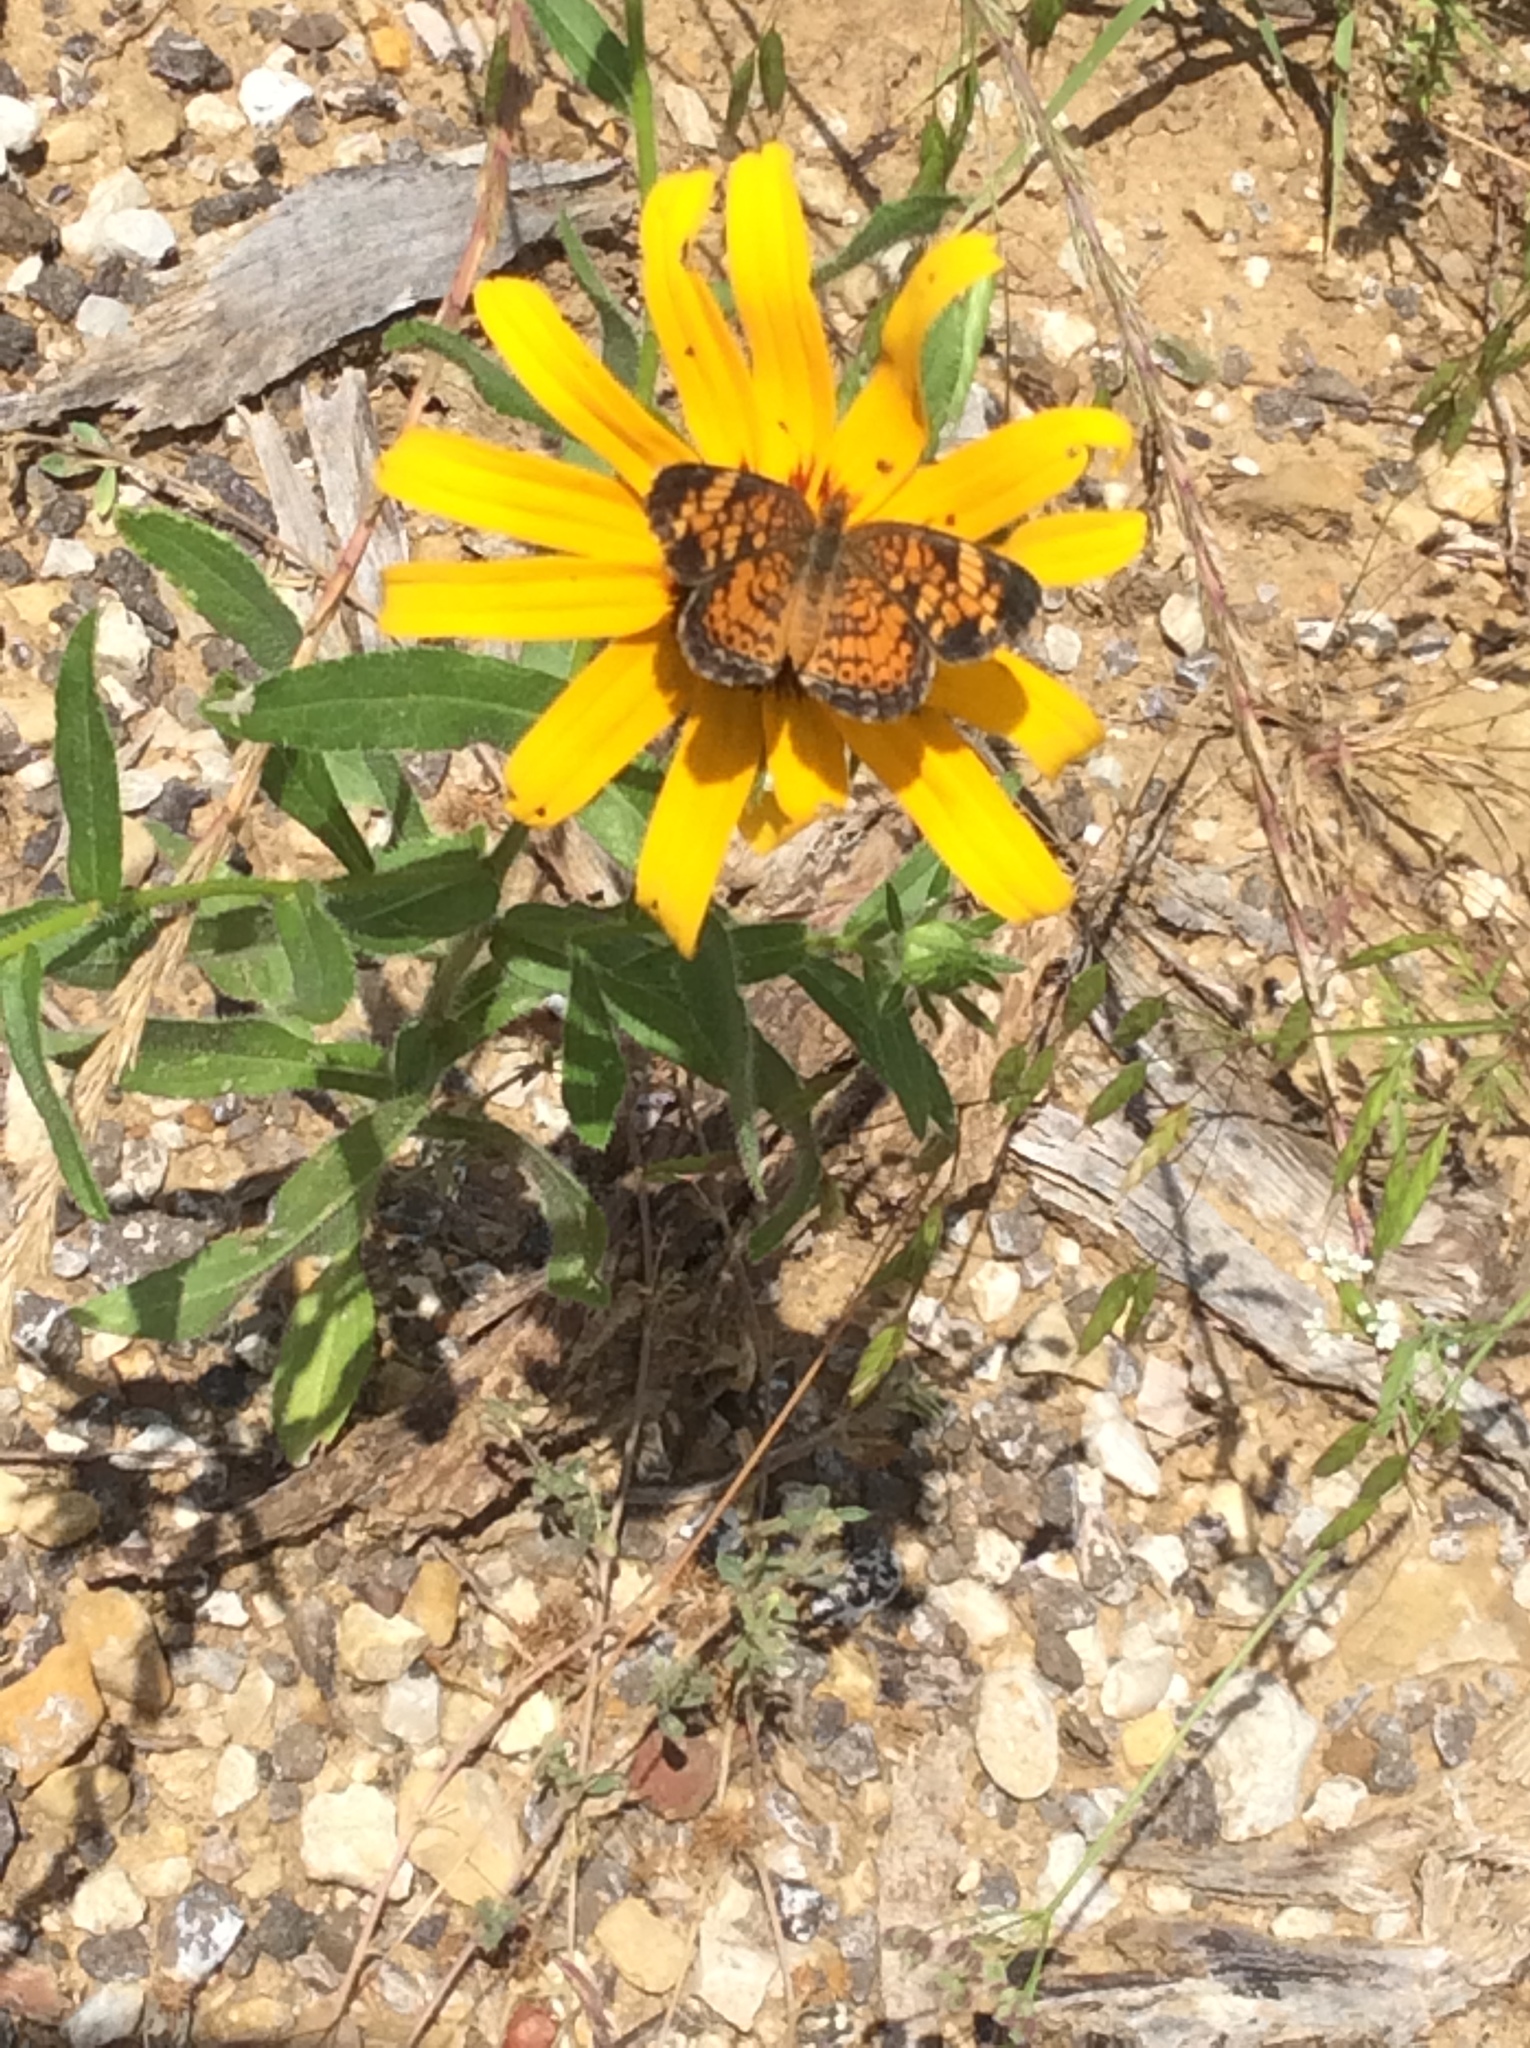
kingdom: Animalia
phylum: Arthropoda
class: Insecta
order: Lepidoptera
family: Nymphalidae
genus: Phyciodes
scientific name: Phyciodes tharos
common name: Pearl crescent
